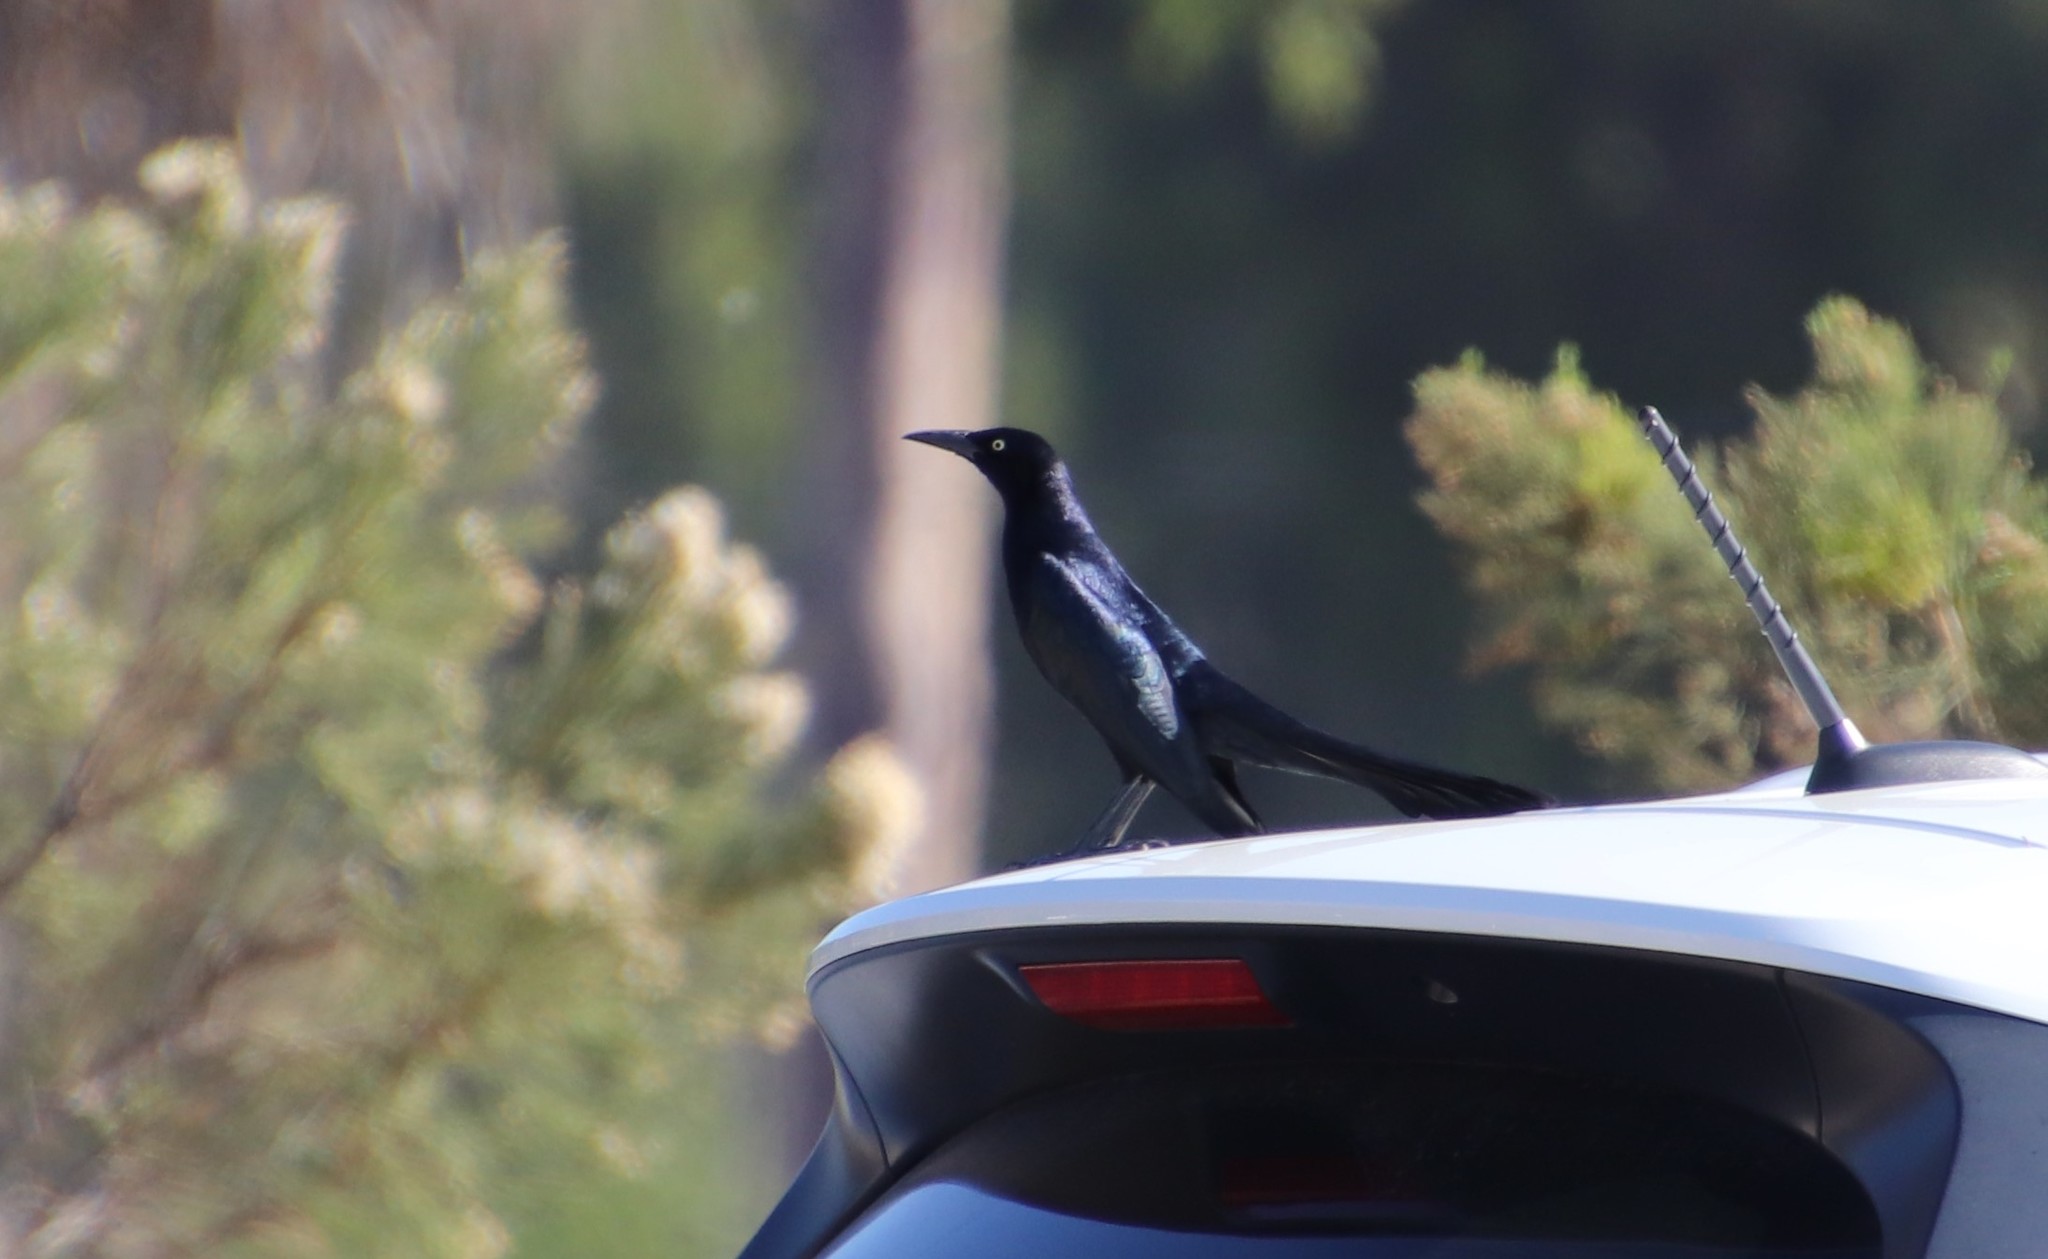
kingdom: Animalia
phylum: Chordata
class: Aves
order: Passeriformes
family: Icteridae
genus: Quiscalus
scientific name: Quiscalus mexicanus
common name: Great-tailed grackle
